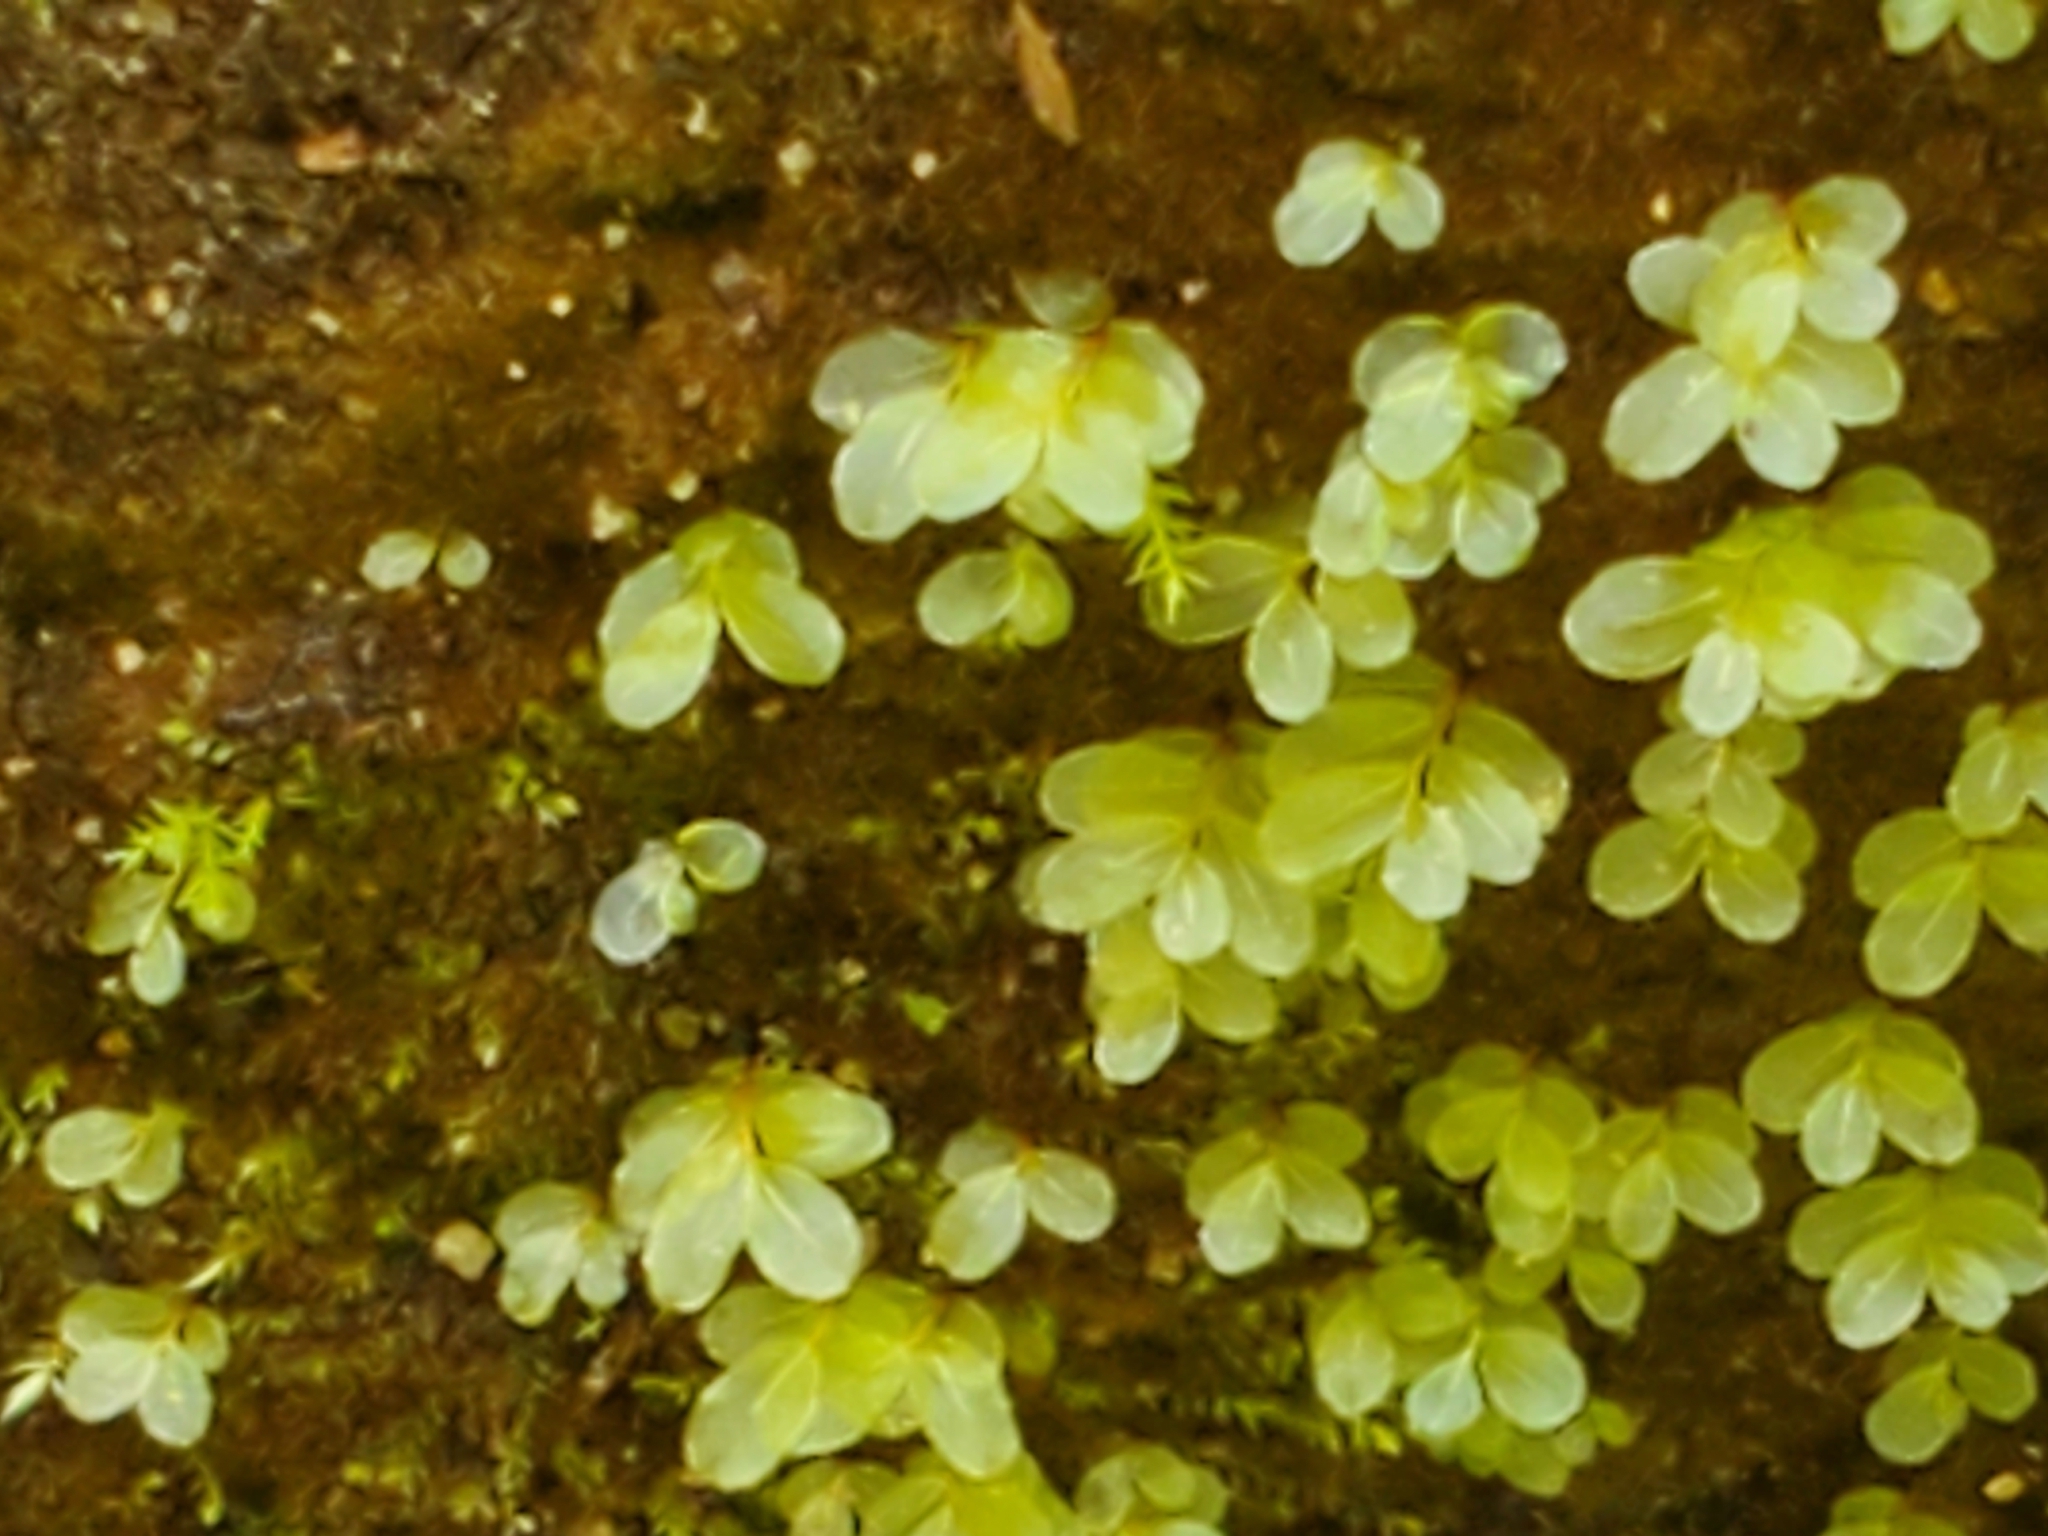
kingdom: Plantae
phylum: Bryophyta
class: Bryopsida
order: Bryales
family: Mniaceae
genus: Rhizomnium
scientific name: Rhizomnium glabrescens
